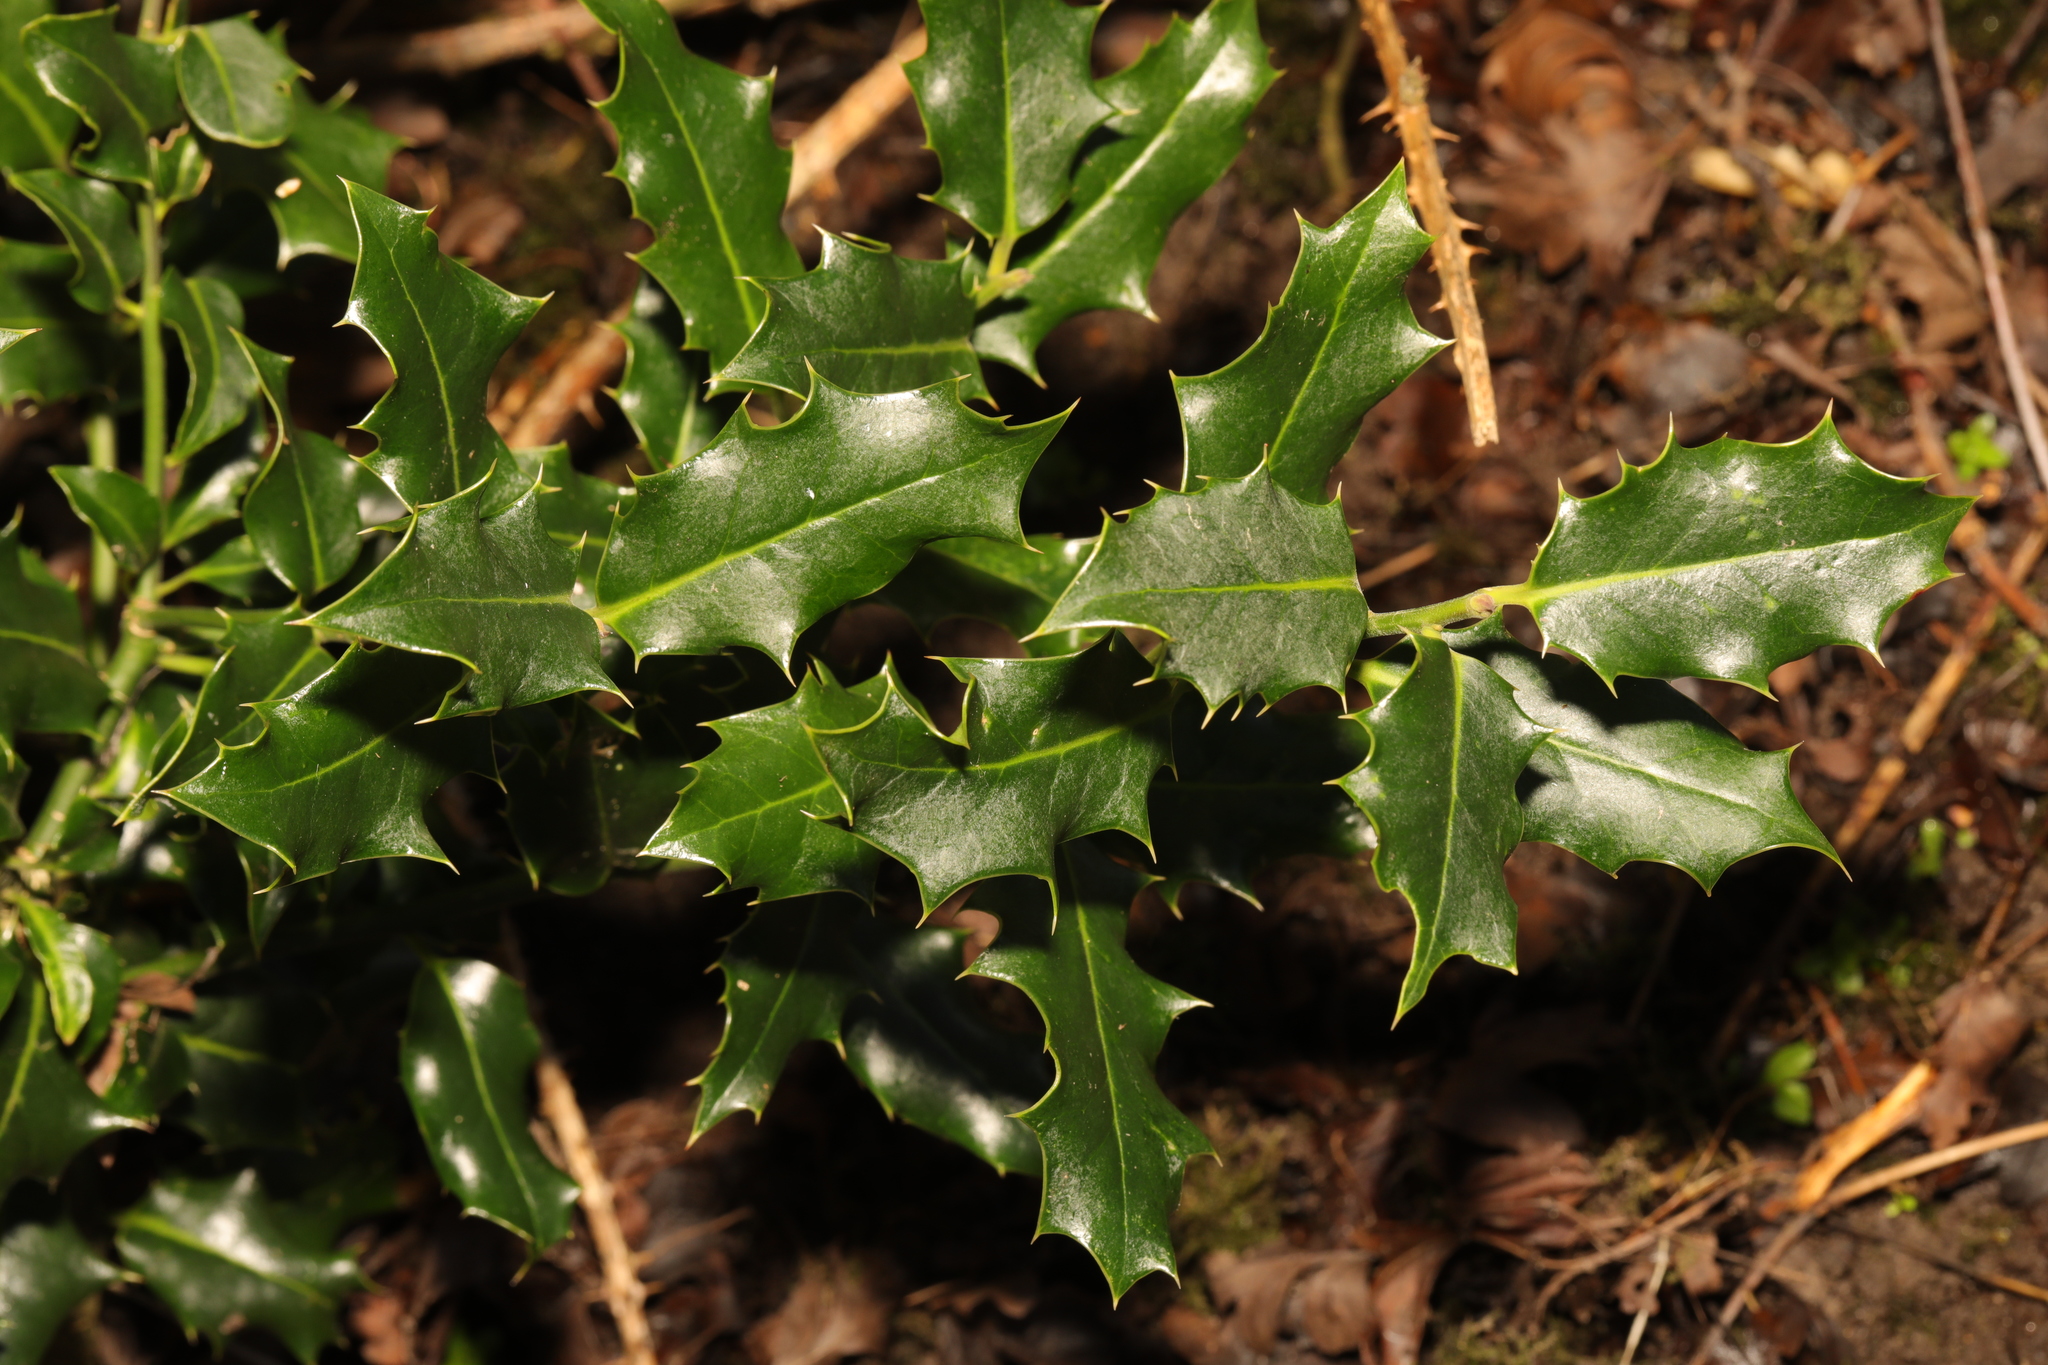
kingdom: Plantae
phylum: Tracheophyta
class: Magnoliopsida
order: Aquifoliales
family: Aquifoliaceae
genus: Ilex
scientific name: Ilex aquifolium
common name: English holly
